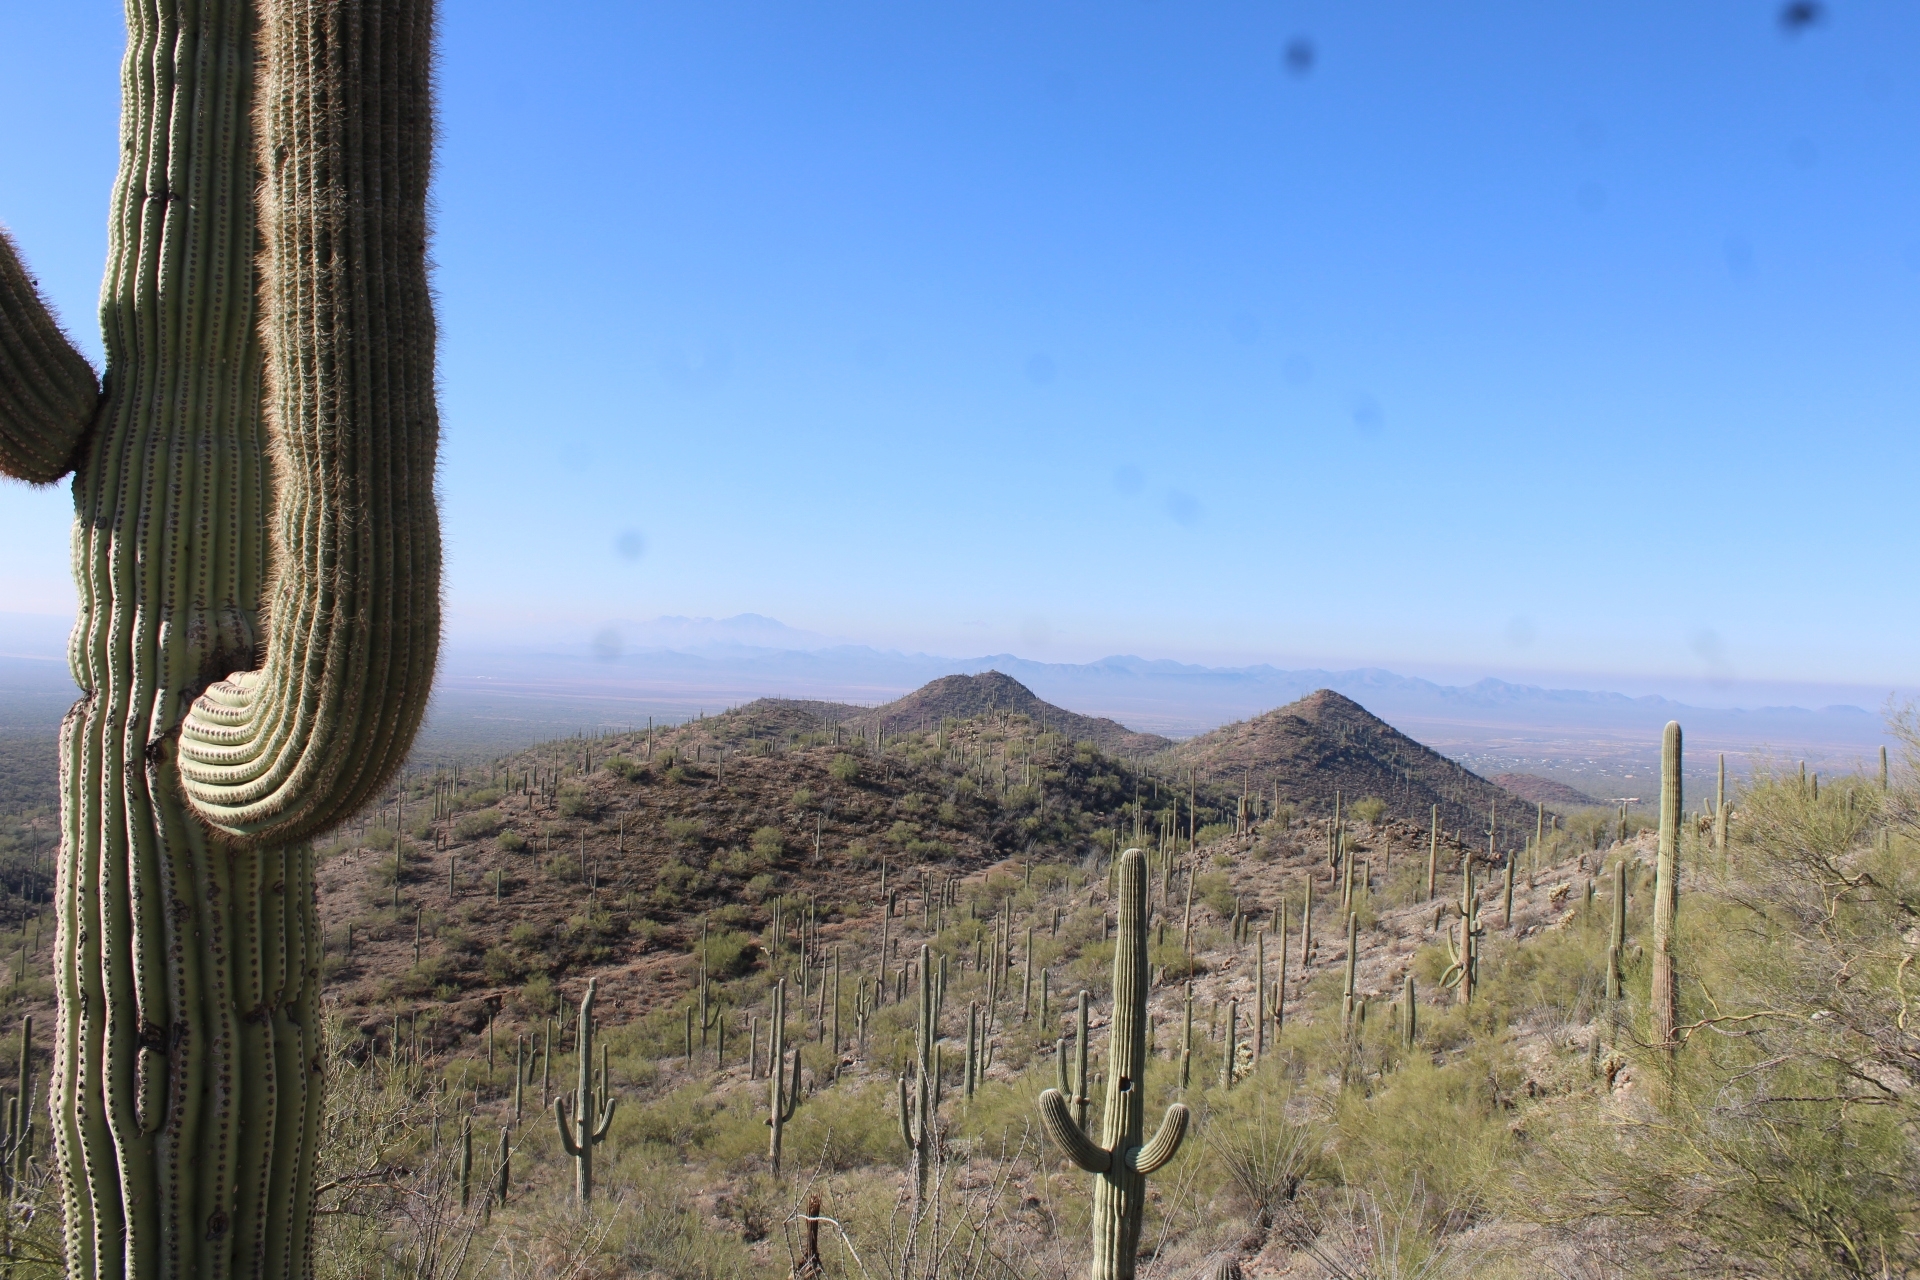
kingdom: Plantae
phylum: Tracheophyta
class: Magnoliopsida
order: Caryophyllales
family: Cactaceae
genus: Carnegiea
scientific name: Carnegiea gigantea
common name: Saguaro
